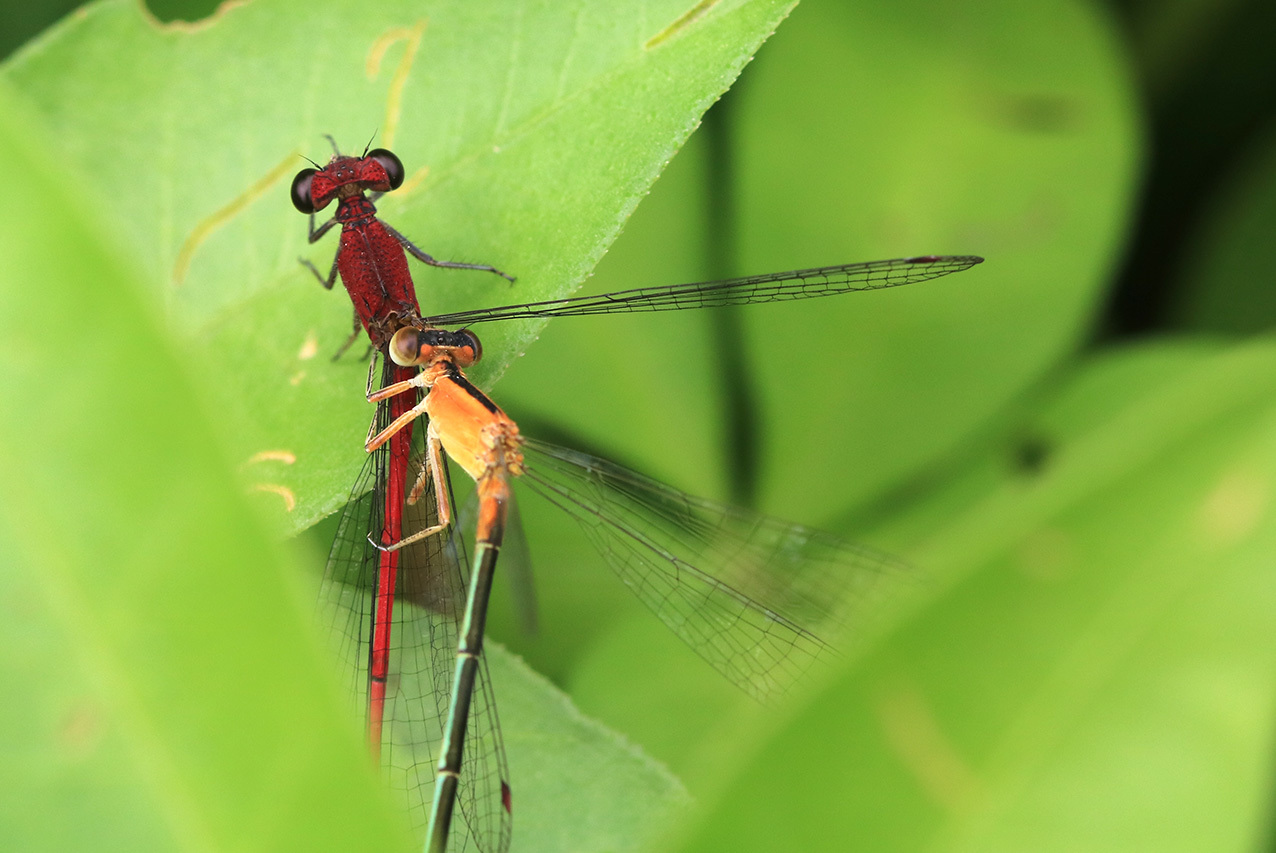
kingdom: Animalia
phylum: Arthropoda
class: Insecta
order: Odonata
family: Coenagrionidae
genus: Ischnura
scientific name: Ischnura fluviatilis
